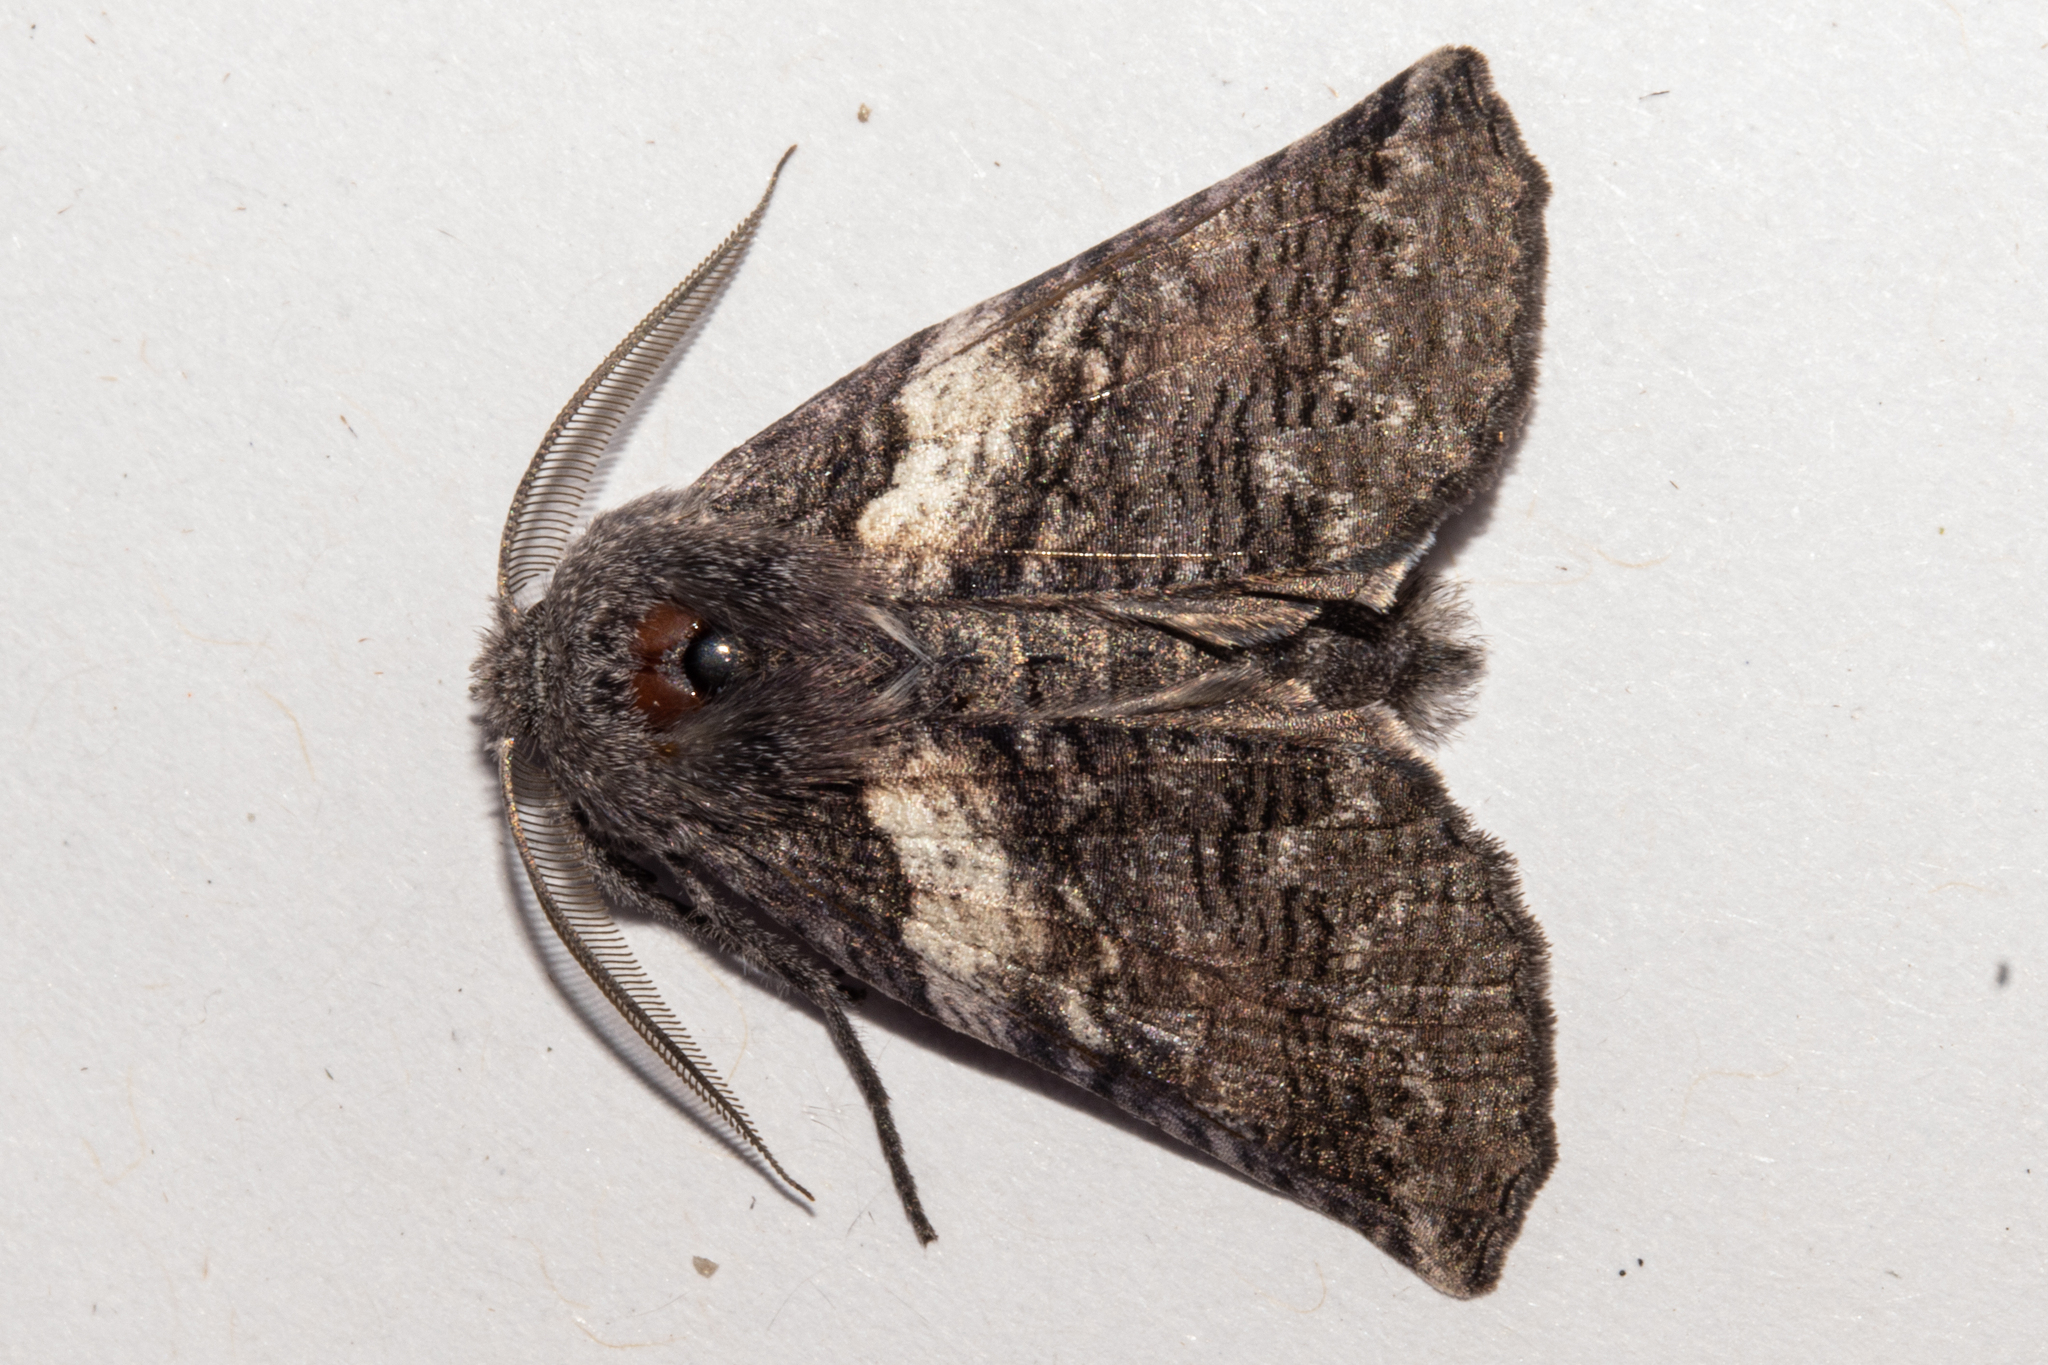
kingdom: Animalia
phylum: Arthropoda
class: Insecta
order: Lepidoptera
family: Geometridae
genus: Declana
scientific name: Declana
